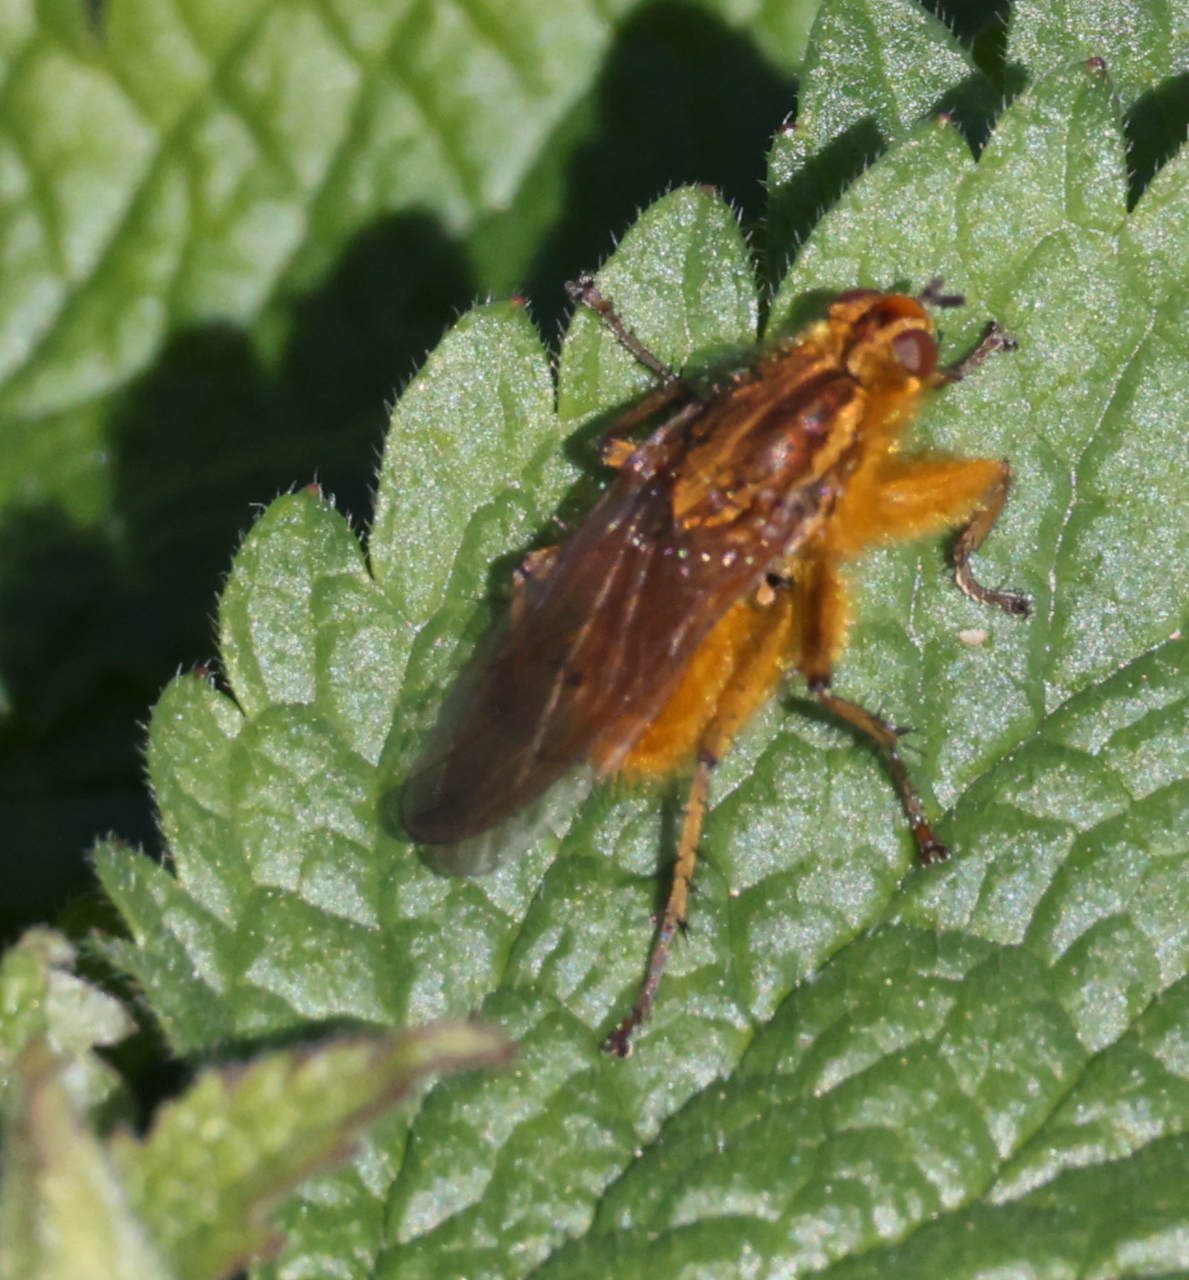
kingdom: Animalia
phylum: Arthropoda
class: Insecta
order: Diptera
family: Scathophagidae
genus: Scathophaga
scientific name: Scathophaga stercoraria
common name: Yellow dung fly
